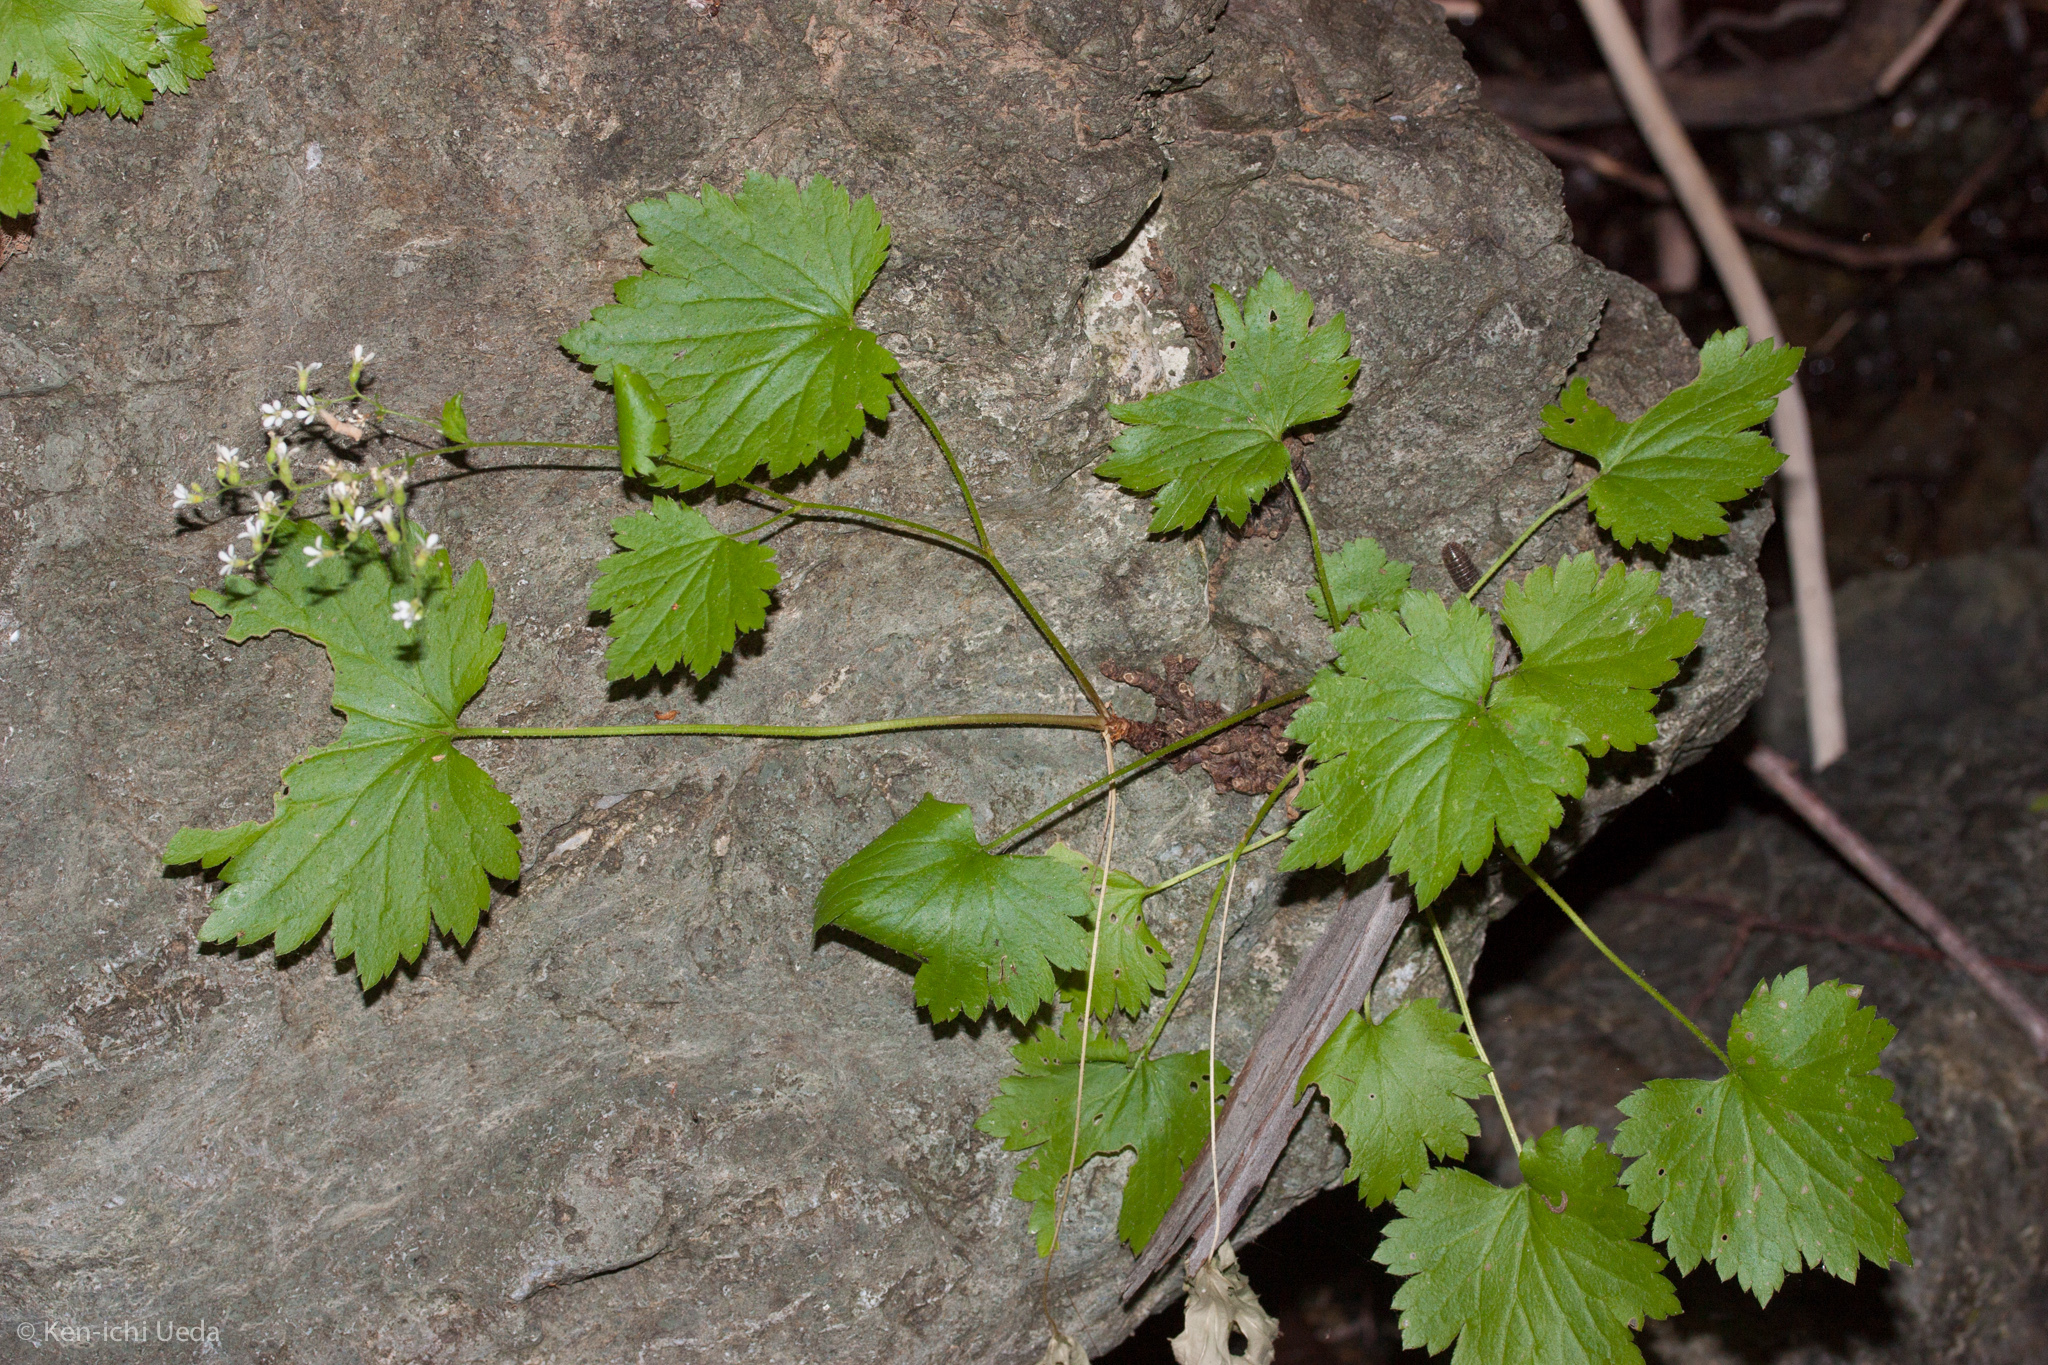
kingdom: Plantae
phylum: Tracheophyta
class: Magnoliopsida
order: Saxifragales
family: Saxifragaceae
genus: Boykinia
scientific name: Boykinia occidentalis
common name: Coast boykinia
